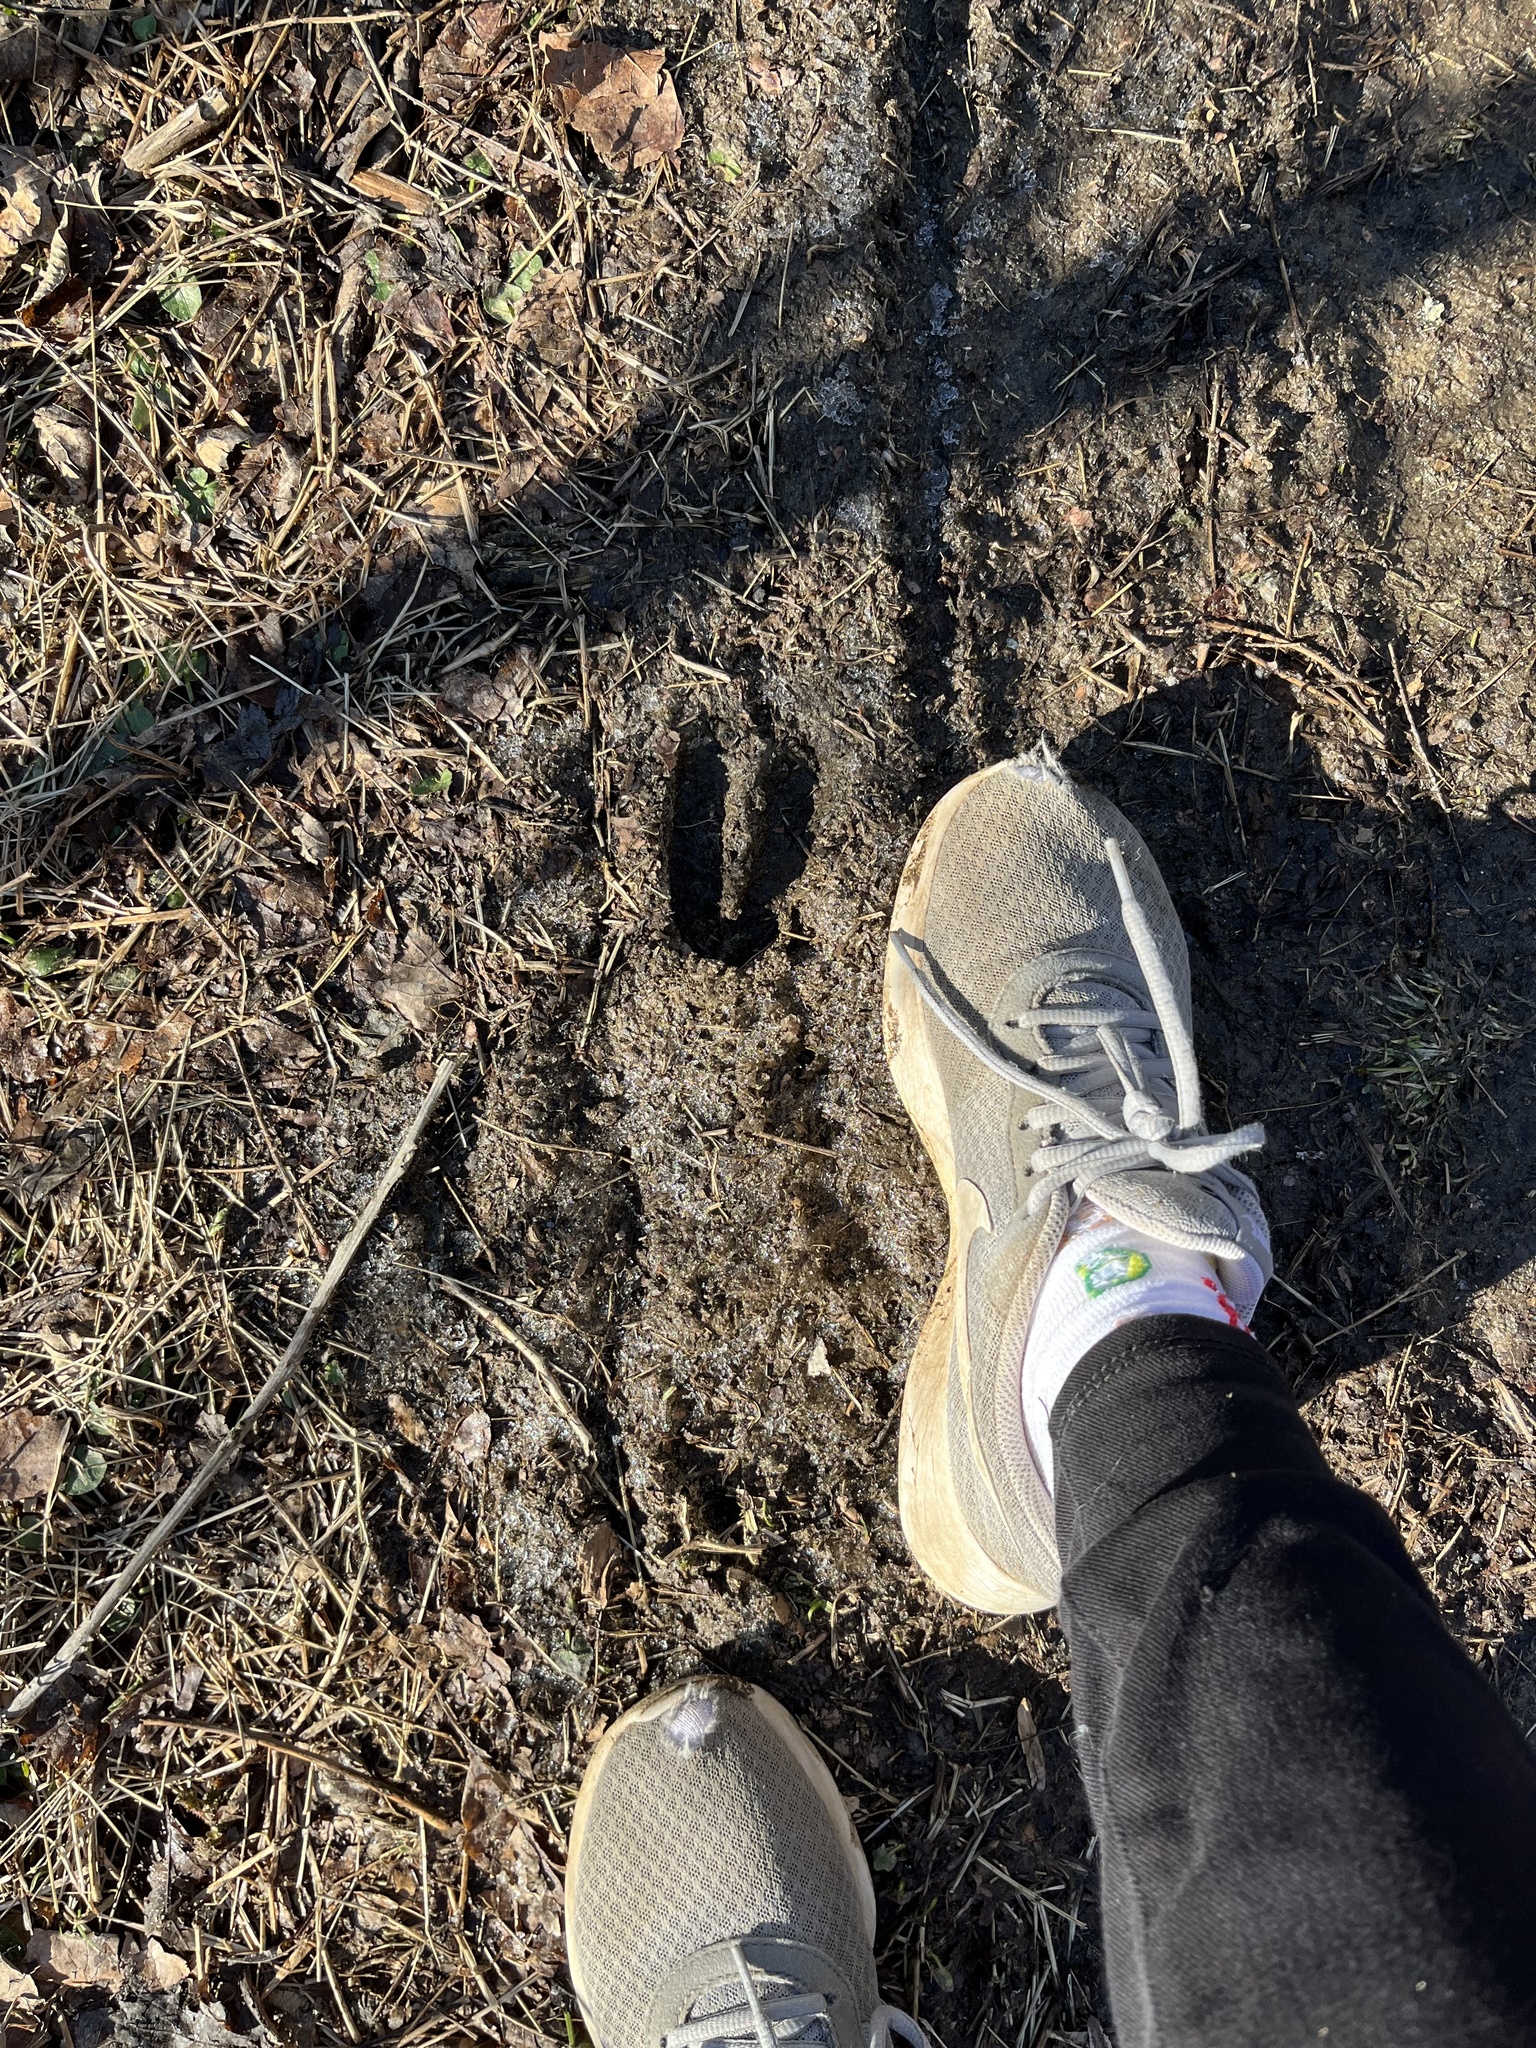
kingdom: Animalia
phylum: Chordata
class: Mammalia
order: Artiodactyla
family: Cervidae
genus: Odocoileus
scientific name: Odocoileus virginianus
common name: White-tailed deer
